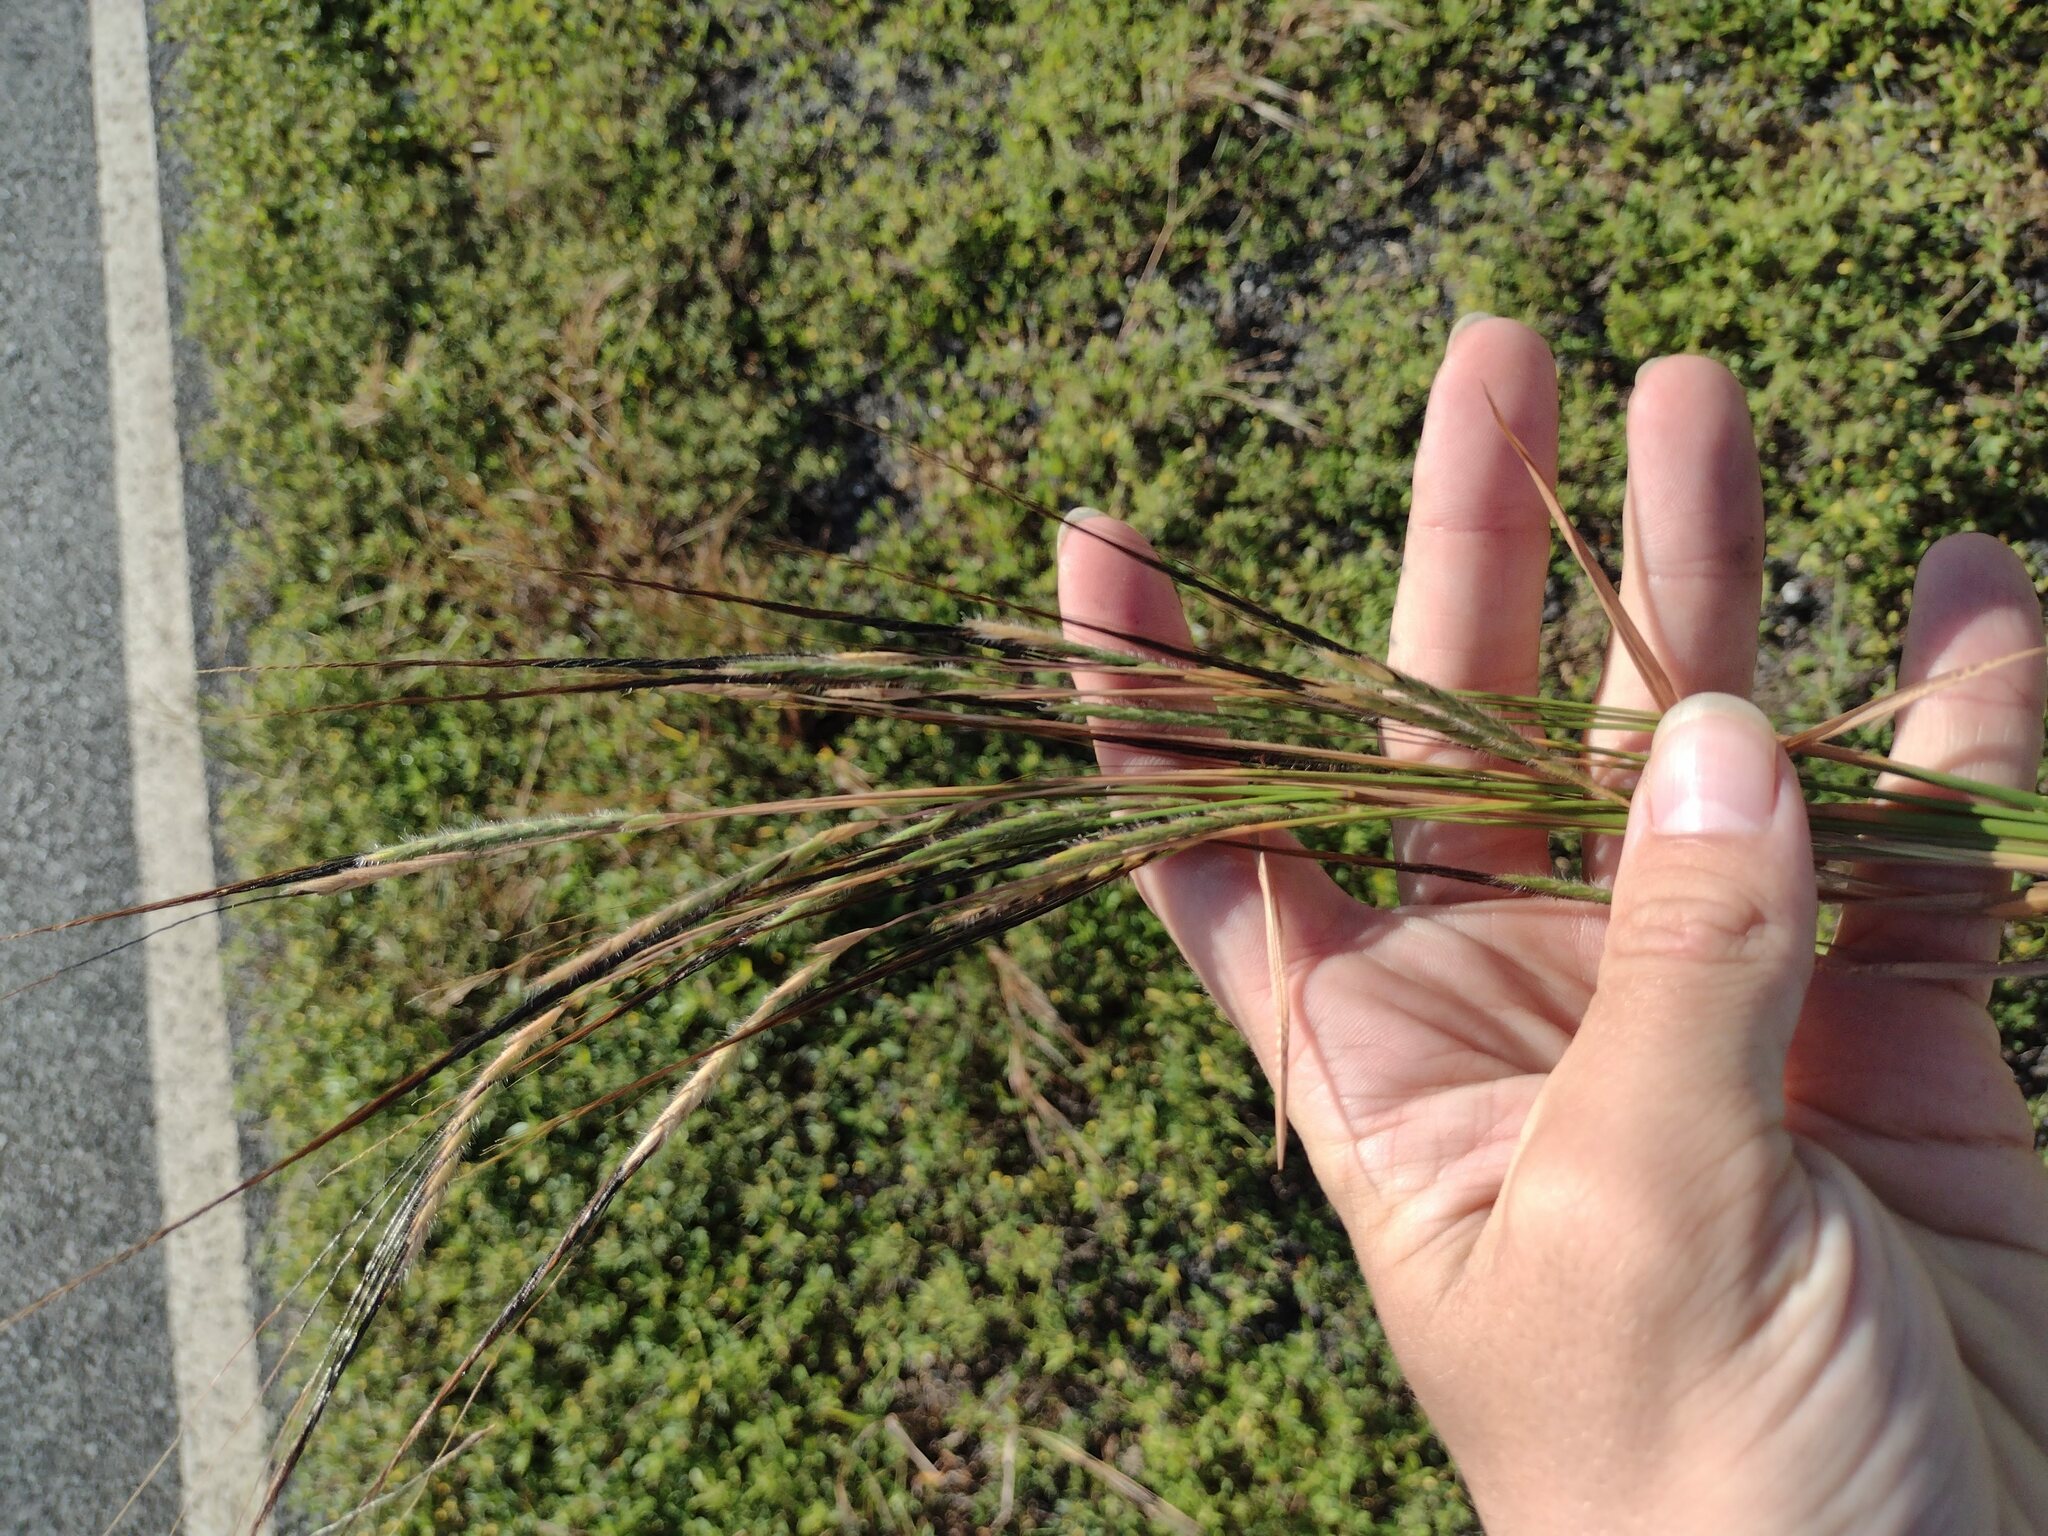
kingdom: Plantae
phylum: Tracheophyta
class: Liliopsida
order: Poales
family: Poaceae
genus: Heteropogon
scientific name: Heteropogon contortus
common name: Tanglehead
